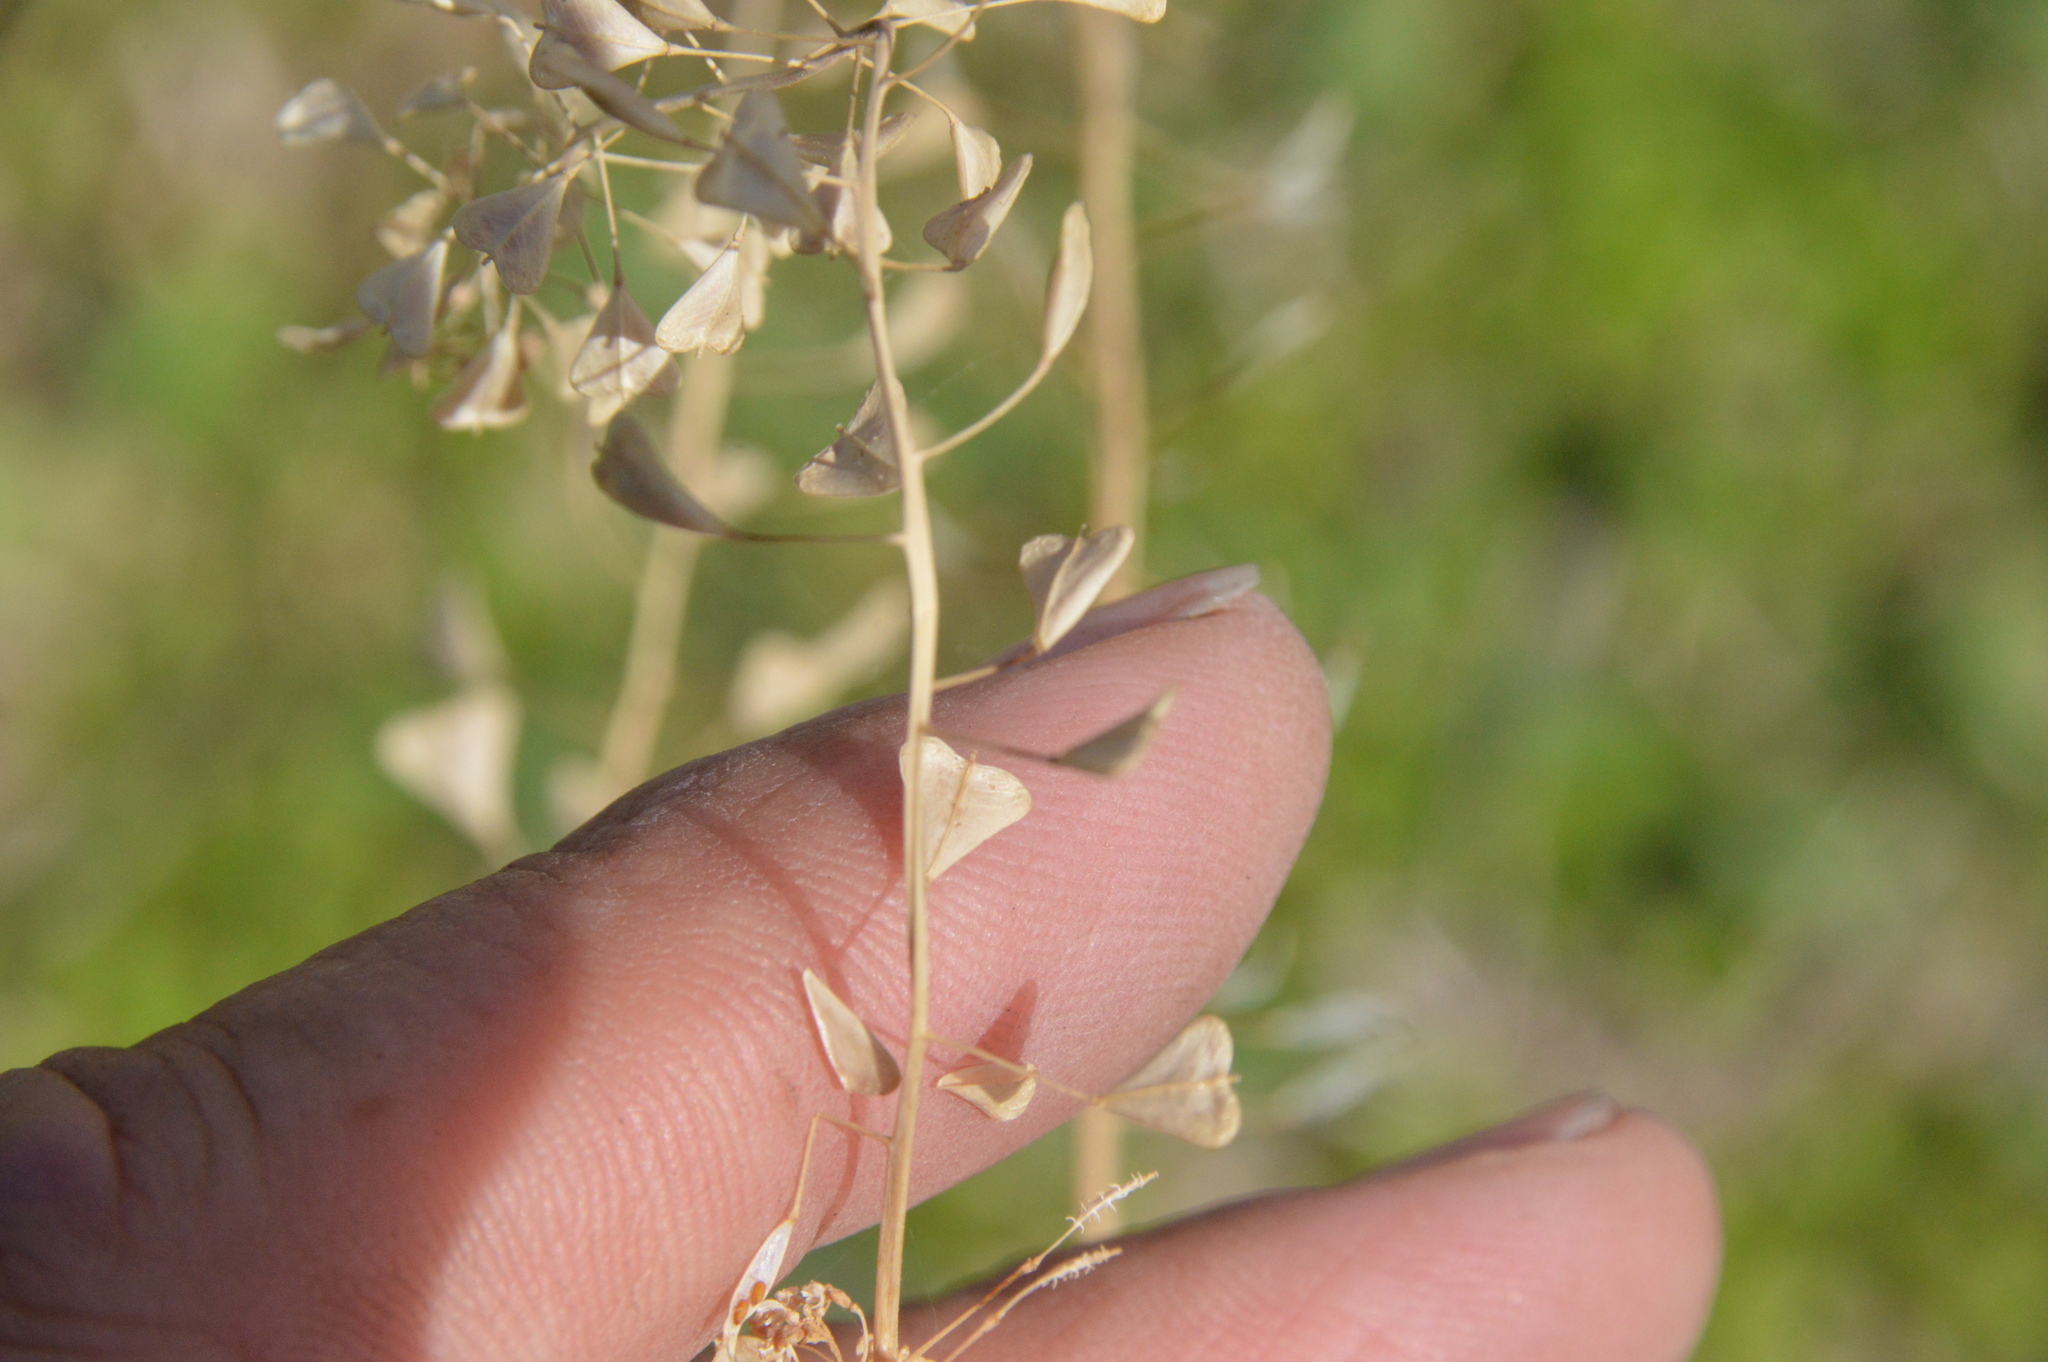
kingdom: Plantae
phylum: Tracheophyta
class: Magnoliopsida
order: Brassicales
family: Brassicaceae
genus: Capsella
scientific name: Capsella bursa-pastoris
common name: Shepherd's purse
